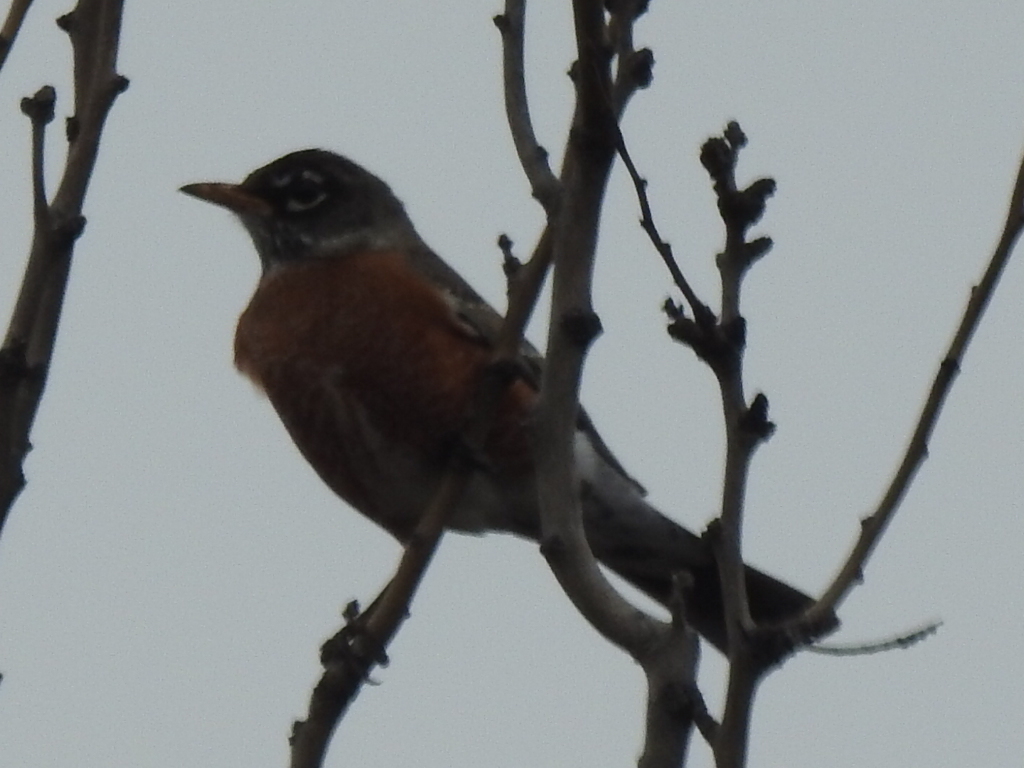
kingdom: Animalia
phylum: Chordata
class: Aves
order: Passeriformes
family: Turdidae
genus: Turdus
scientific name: Turdus migratorius
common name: American robin
